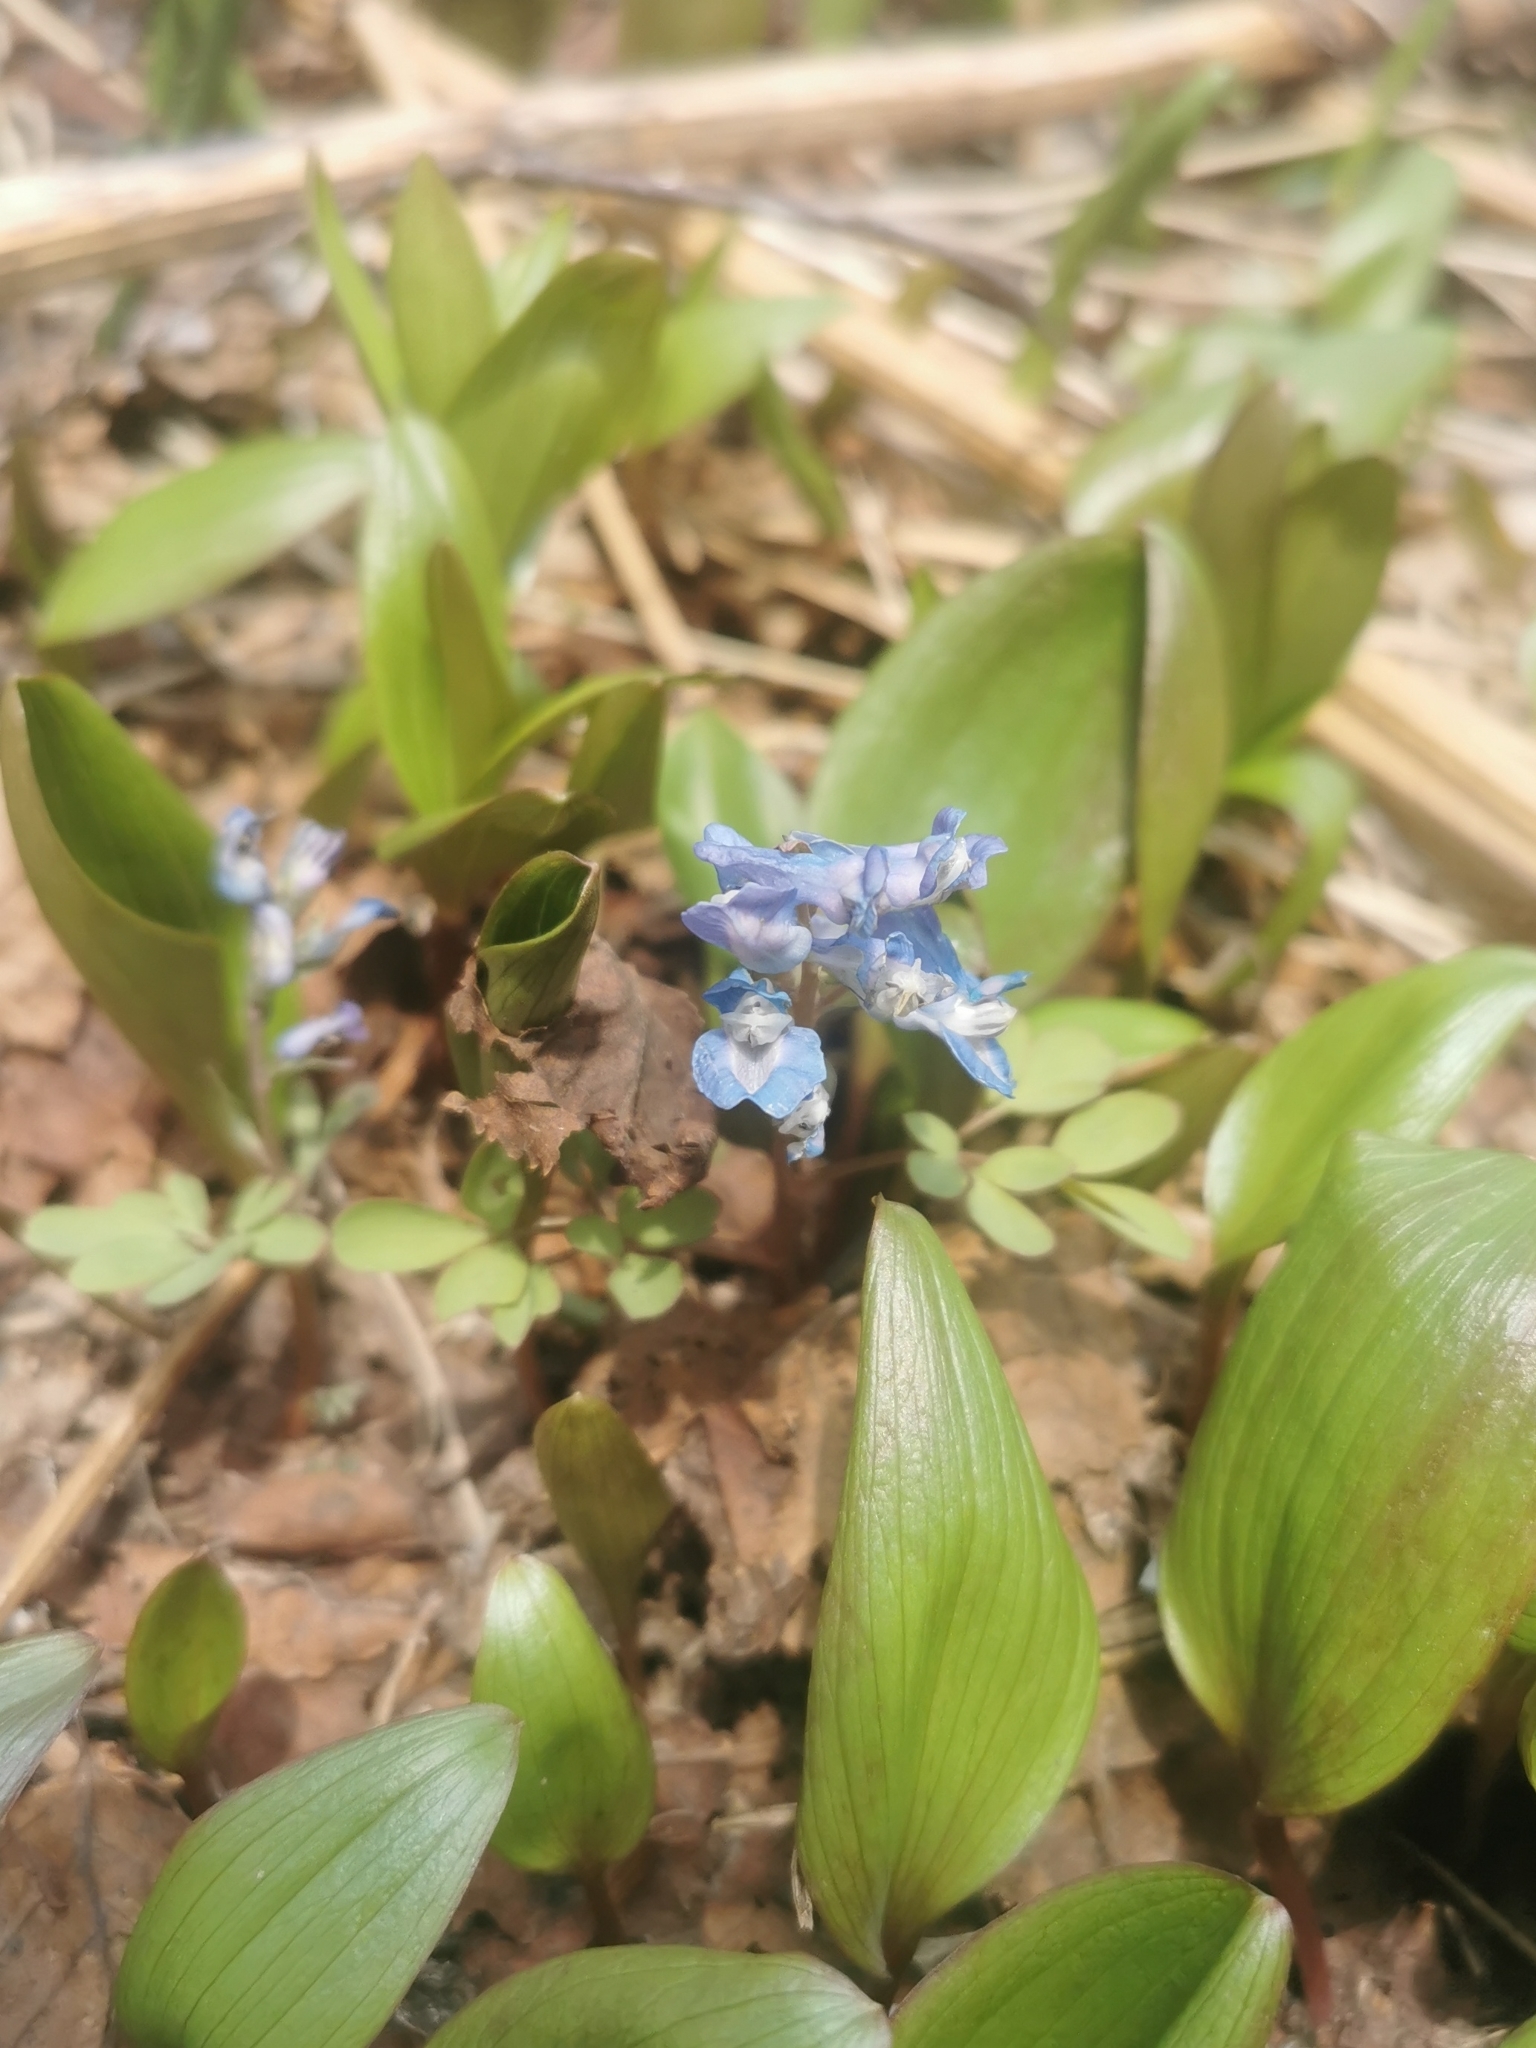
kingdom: Plantae
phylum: Tracheophyta
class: Magnoliopsida
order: Ranunculales
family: Papaveraceae
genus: Corydalis
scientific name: Corydalis ambigua
